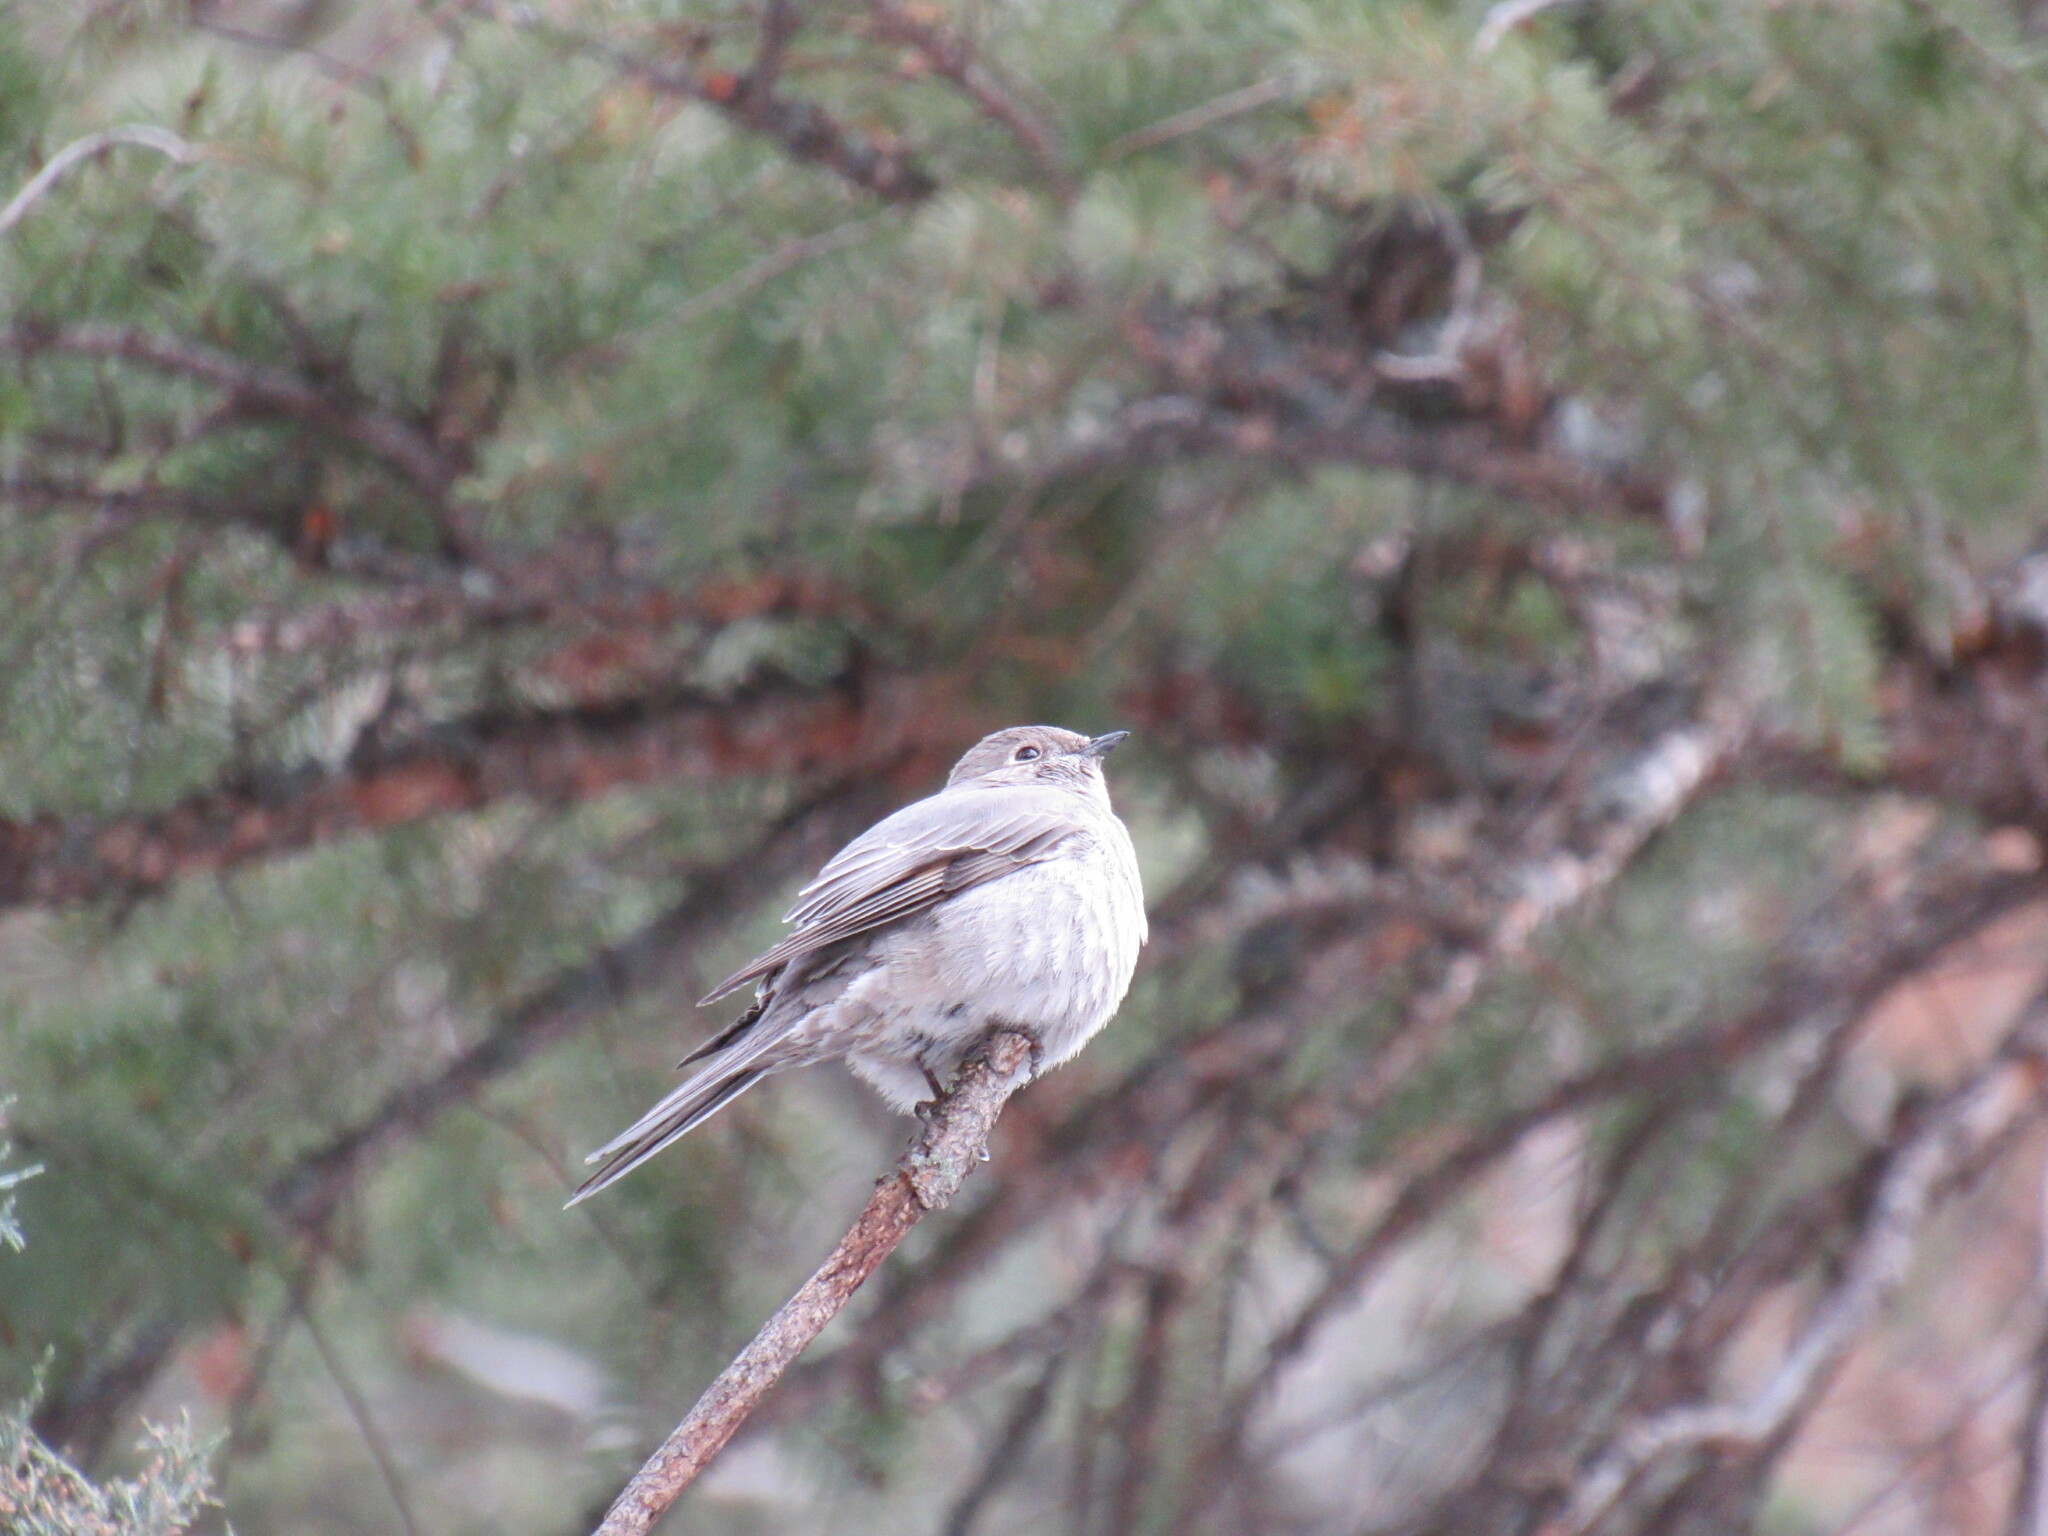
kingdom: Animalia
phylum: Chordata
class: Aves
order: Passeriformes
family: Turdidae
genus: Myadestes
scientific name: Myadestes townsendi
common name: Townsend's solitaire
